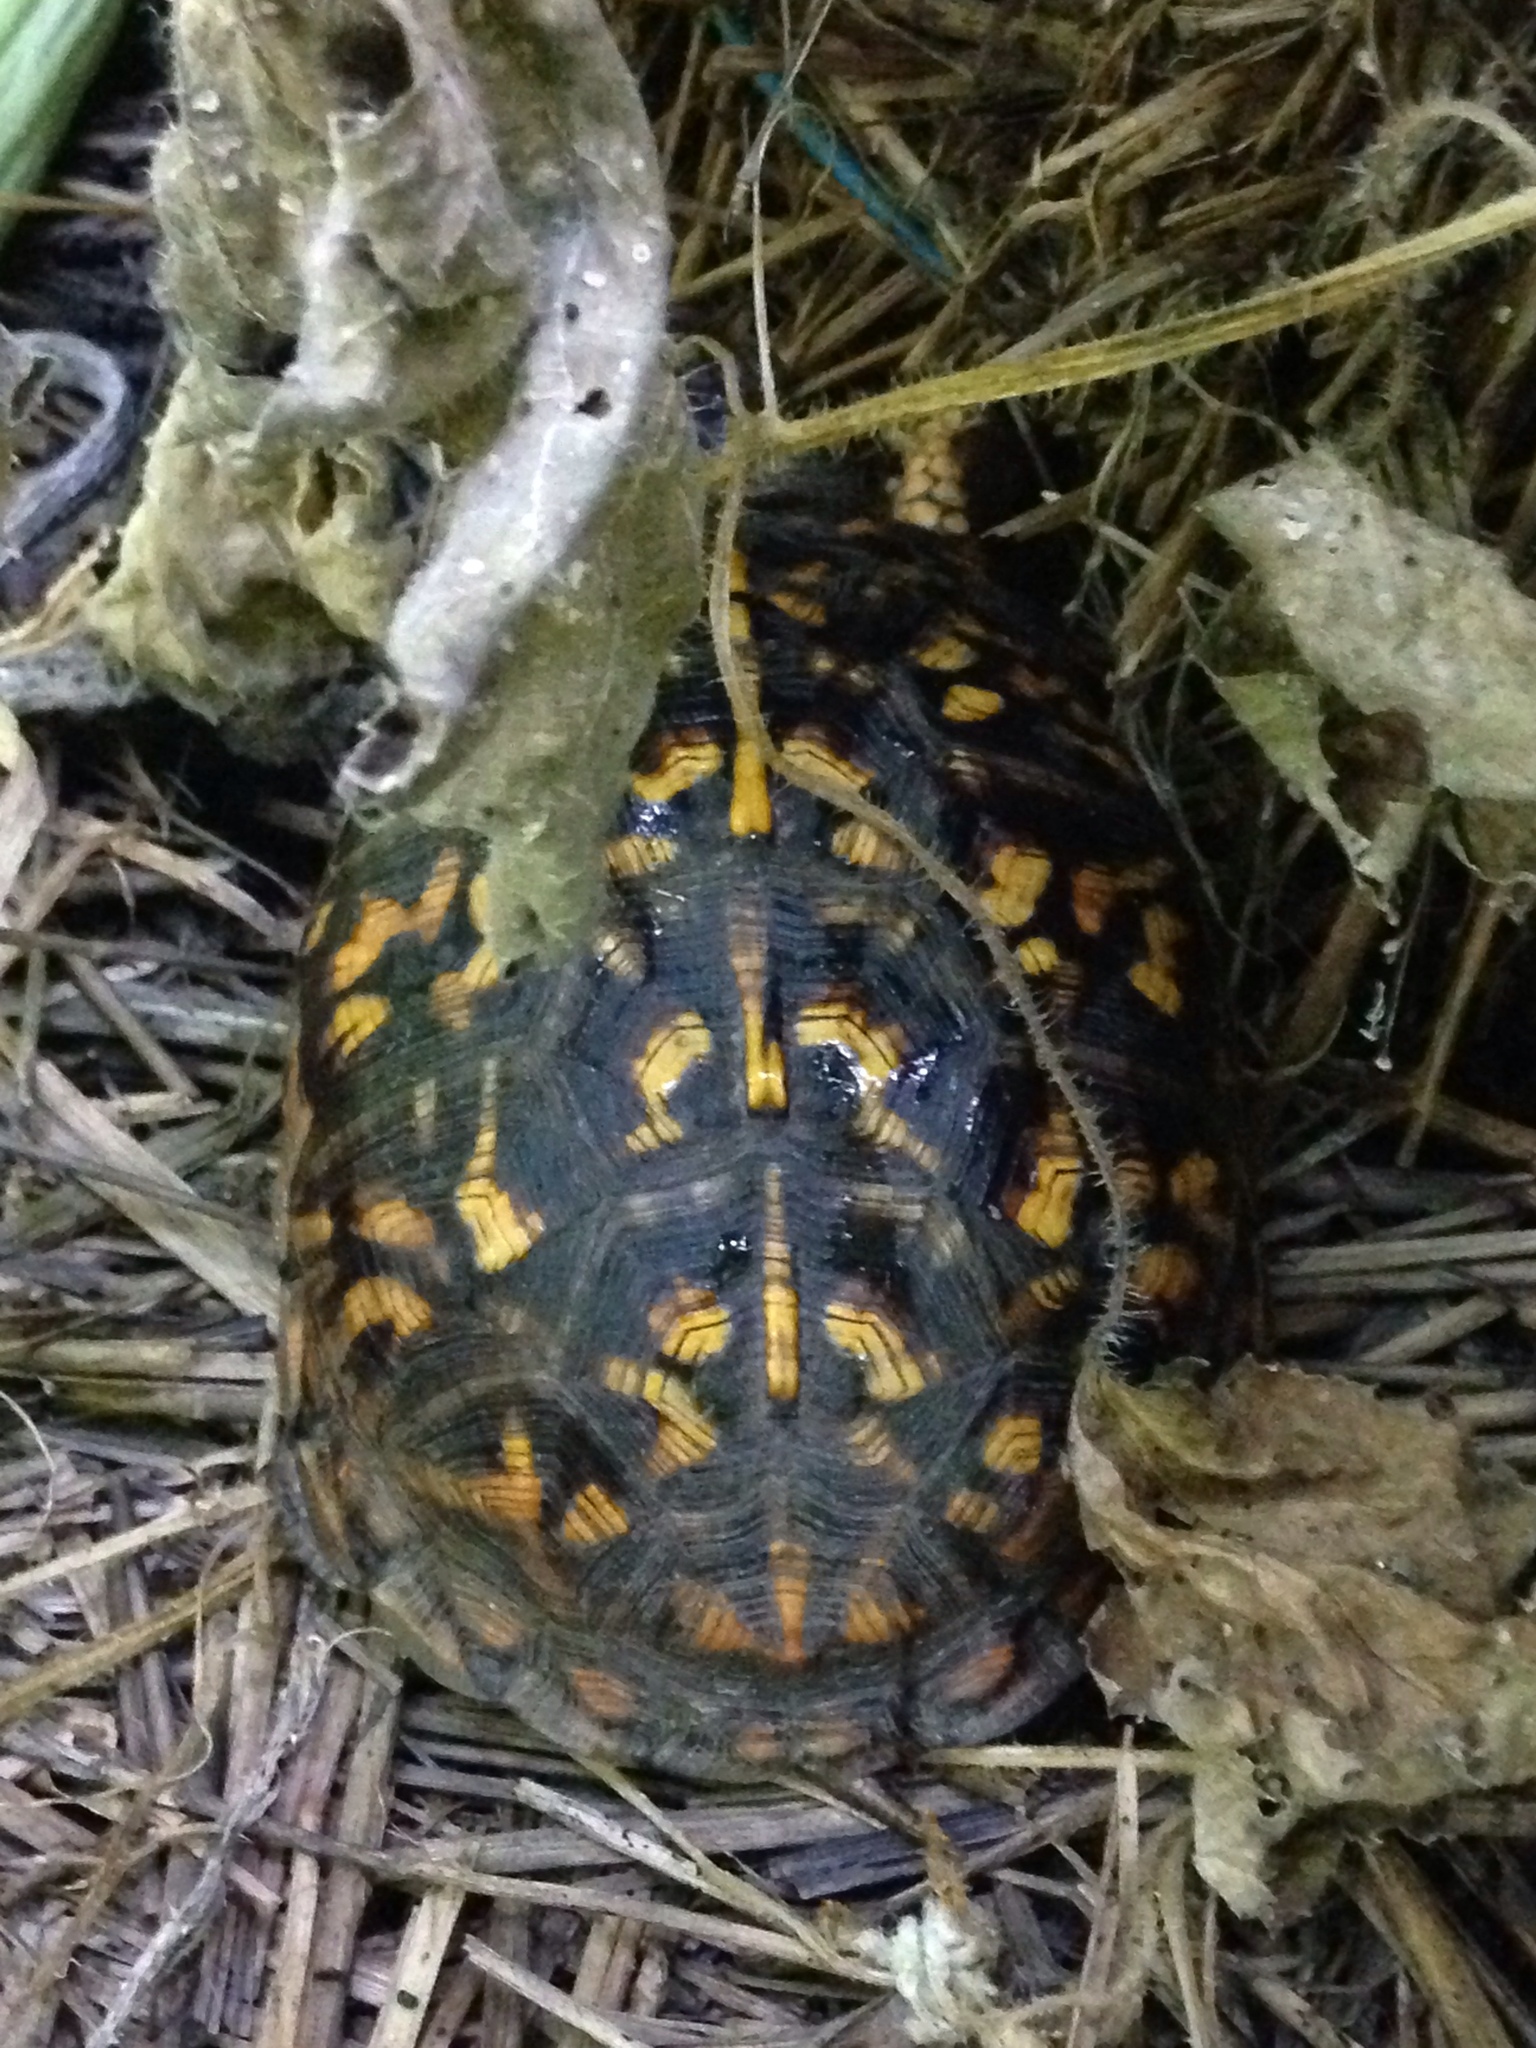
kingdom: Animalia
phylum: Chordata
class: Testudines
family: Emydidae
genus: Terrapene
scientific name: Terrapene carolina
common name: Common box turtle
